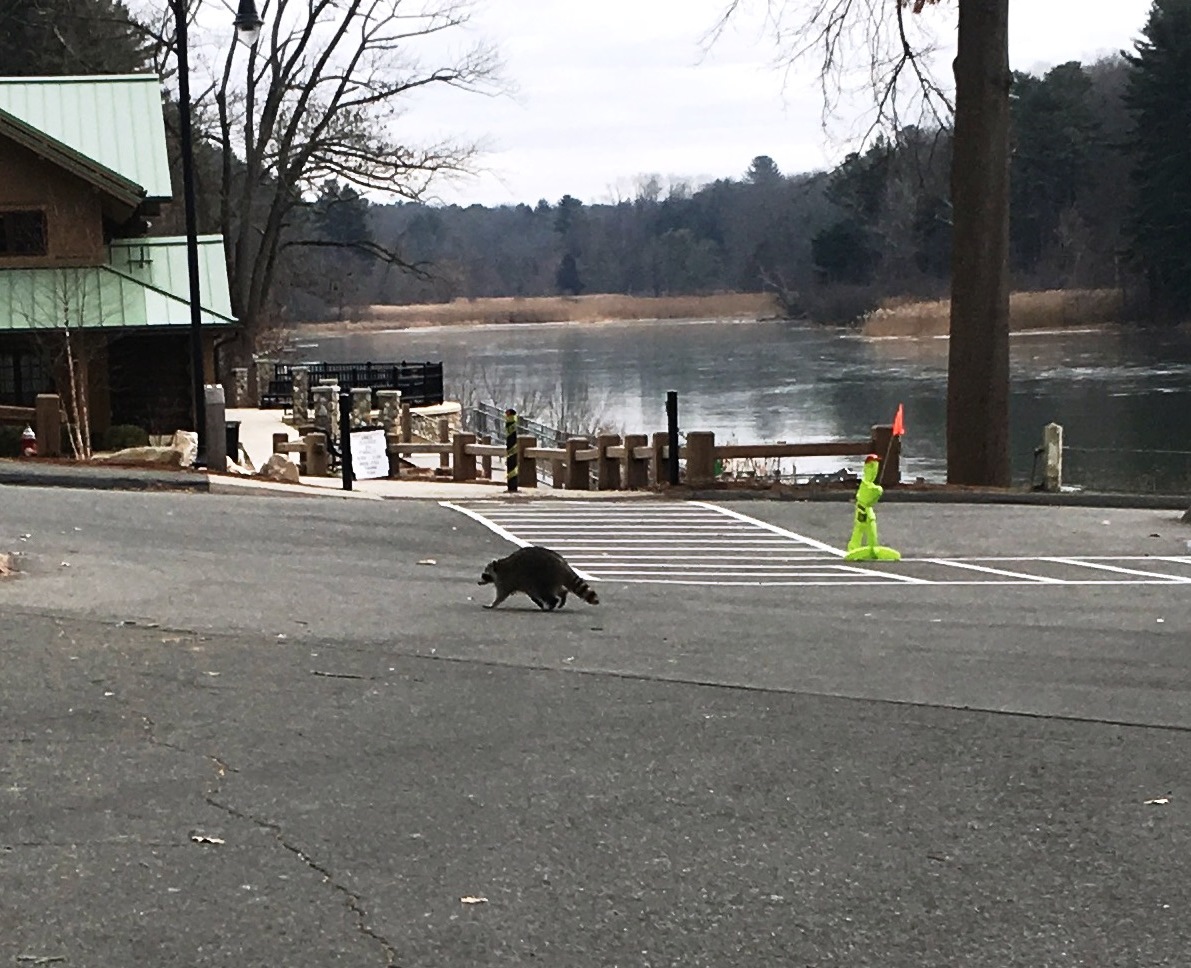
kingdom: Animalia
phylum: Chordata
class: Mammalia
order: Carnivora
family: Procyonidae
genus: Procyon
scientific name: Procyon lotor
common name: Raccoon
